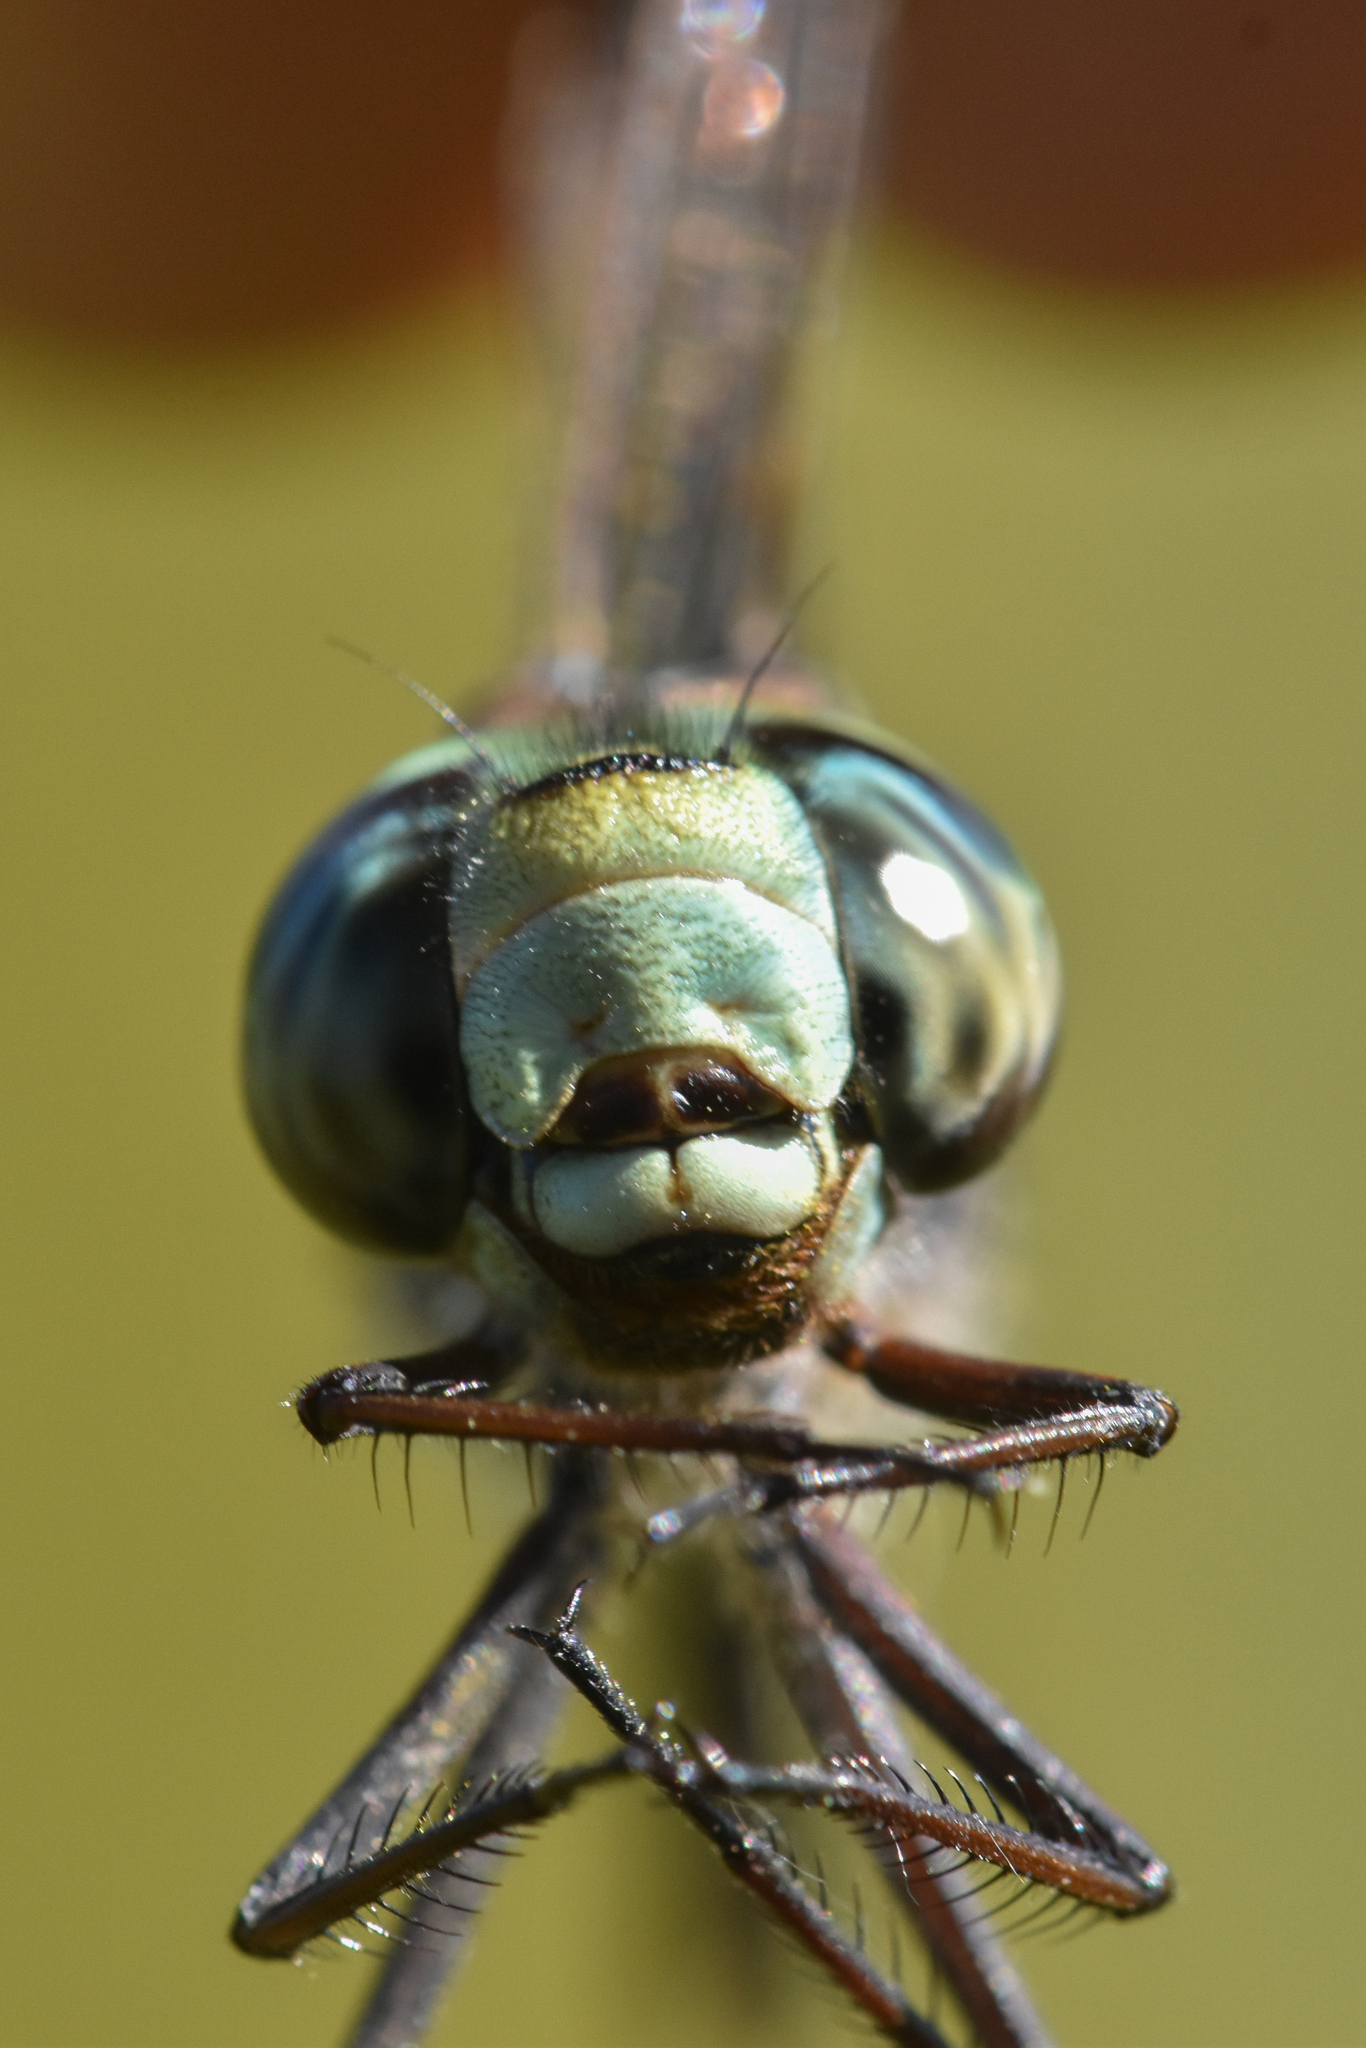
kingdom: Animalia
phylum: Arthropoda
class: Insecta
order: Odonata
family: Aeshnidae
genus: Aeshna
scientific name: Aeshna canadensis
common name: Canada darner
